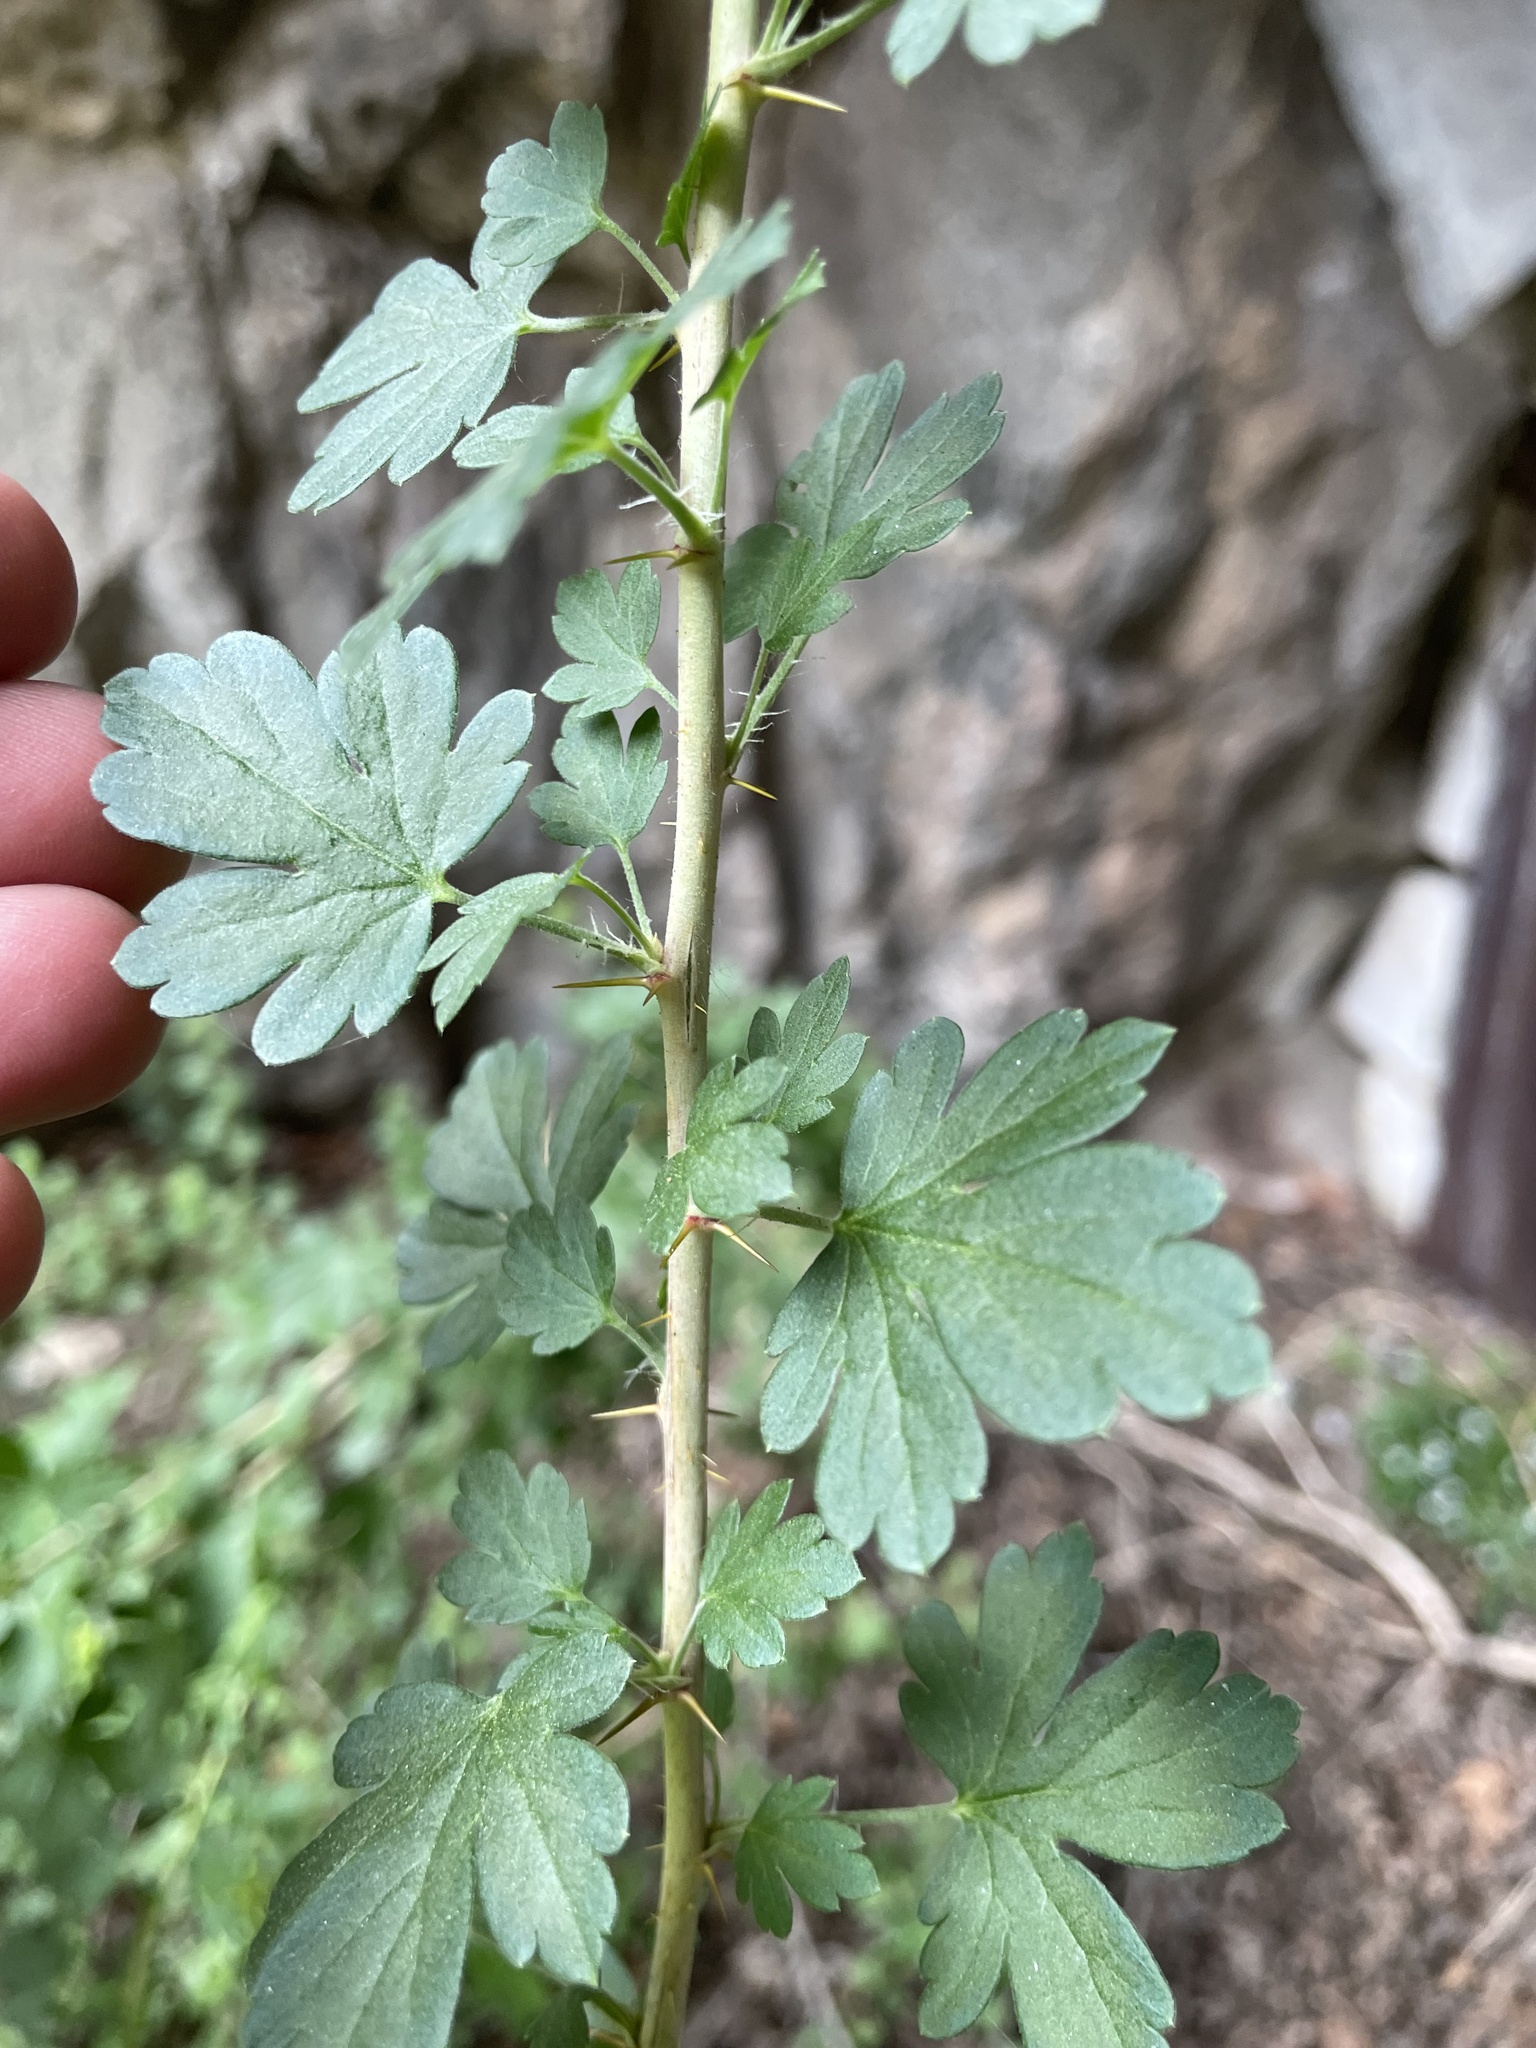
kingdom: Plantae
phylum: Tracheophyta
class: Magnoliopsida
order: Saxifragales
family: Grossulariaceae
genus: Ribes
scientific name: Ribes leptanthum
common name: Trumpet gooseberry
